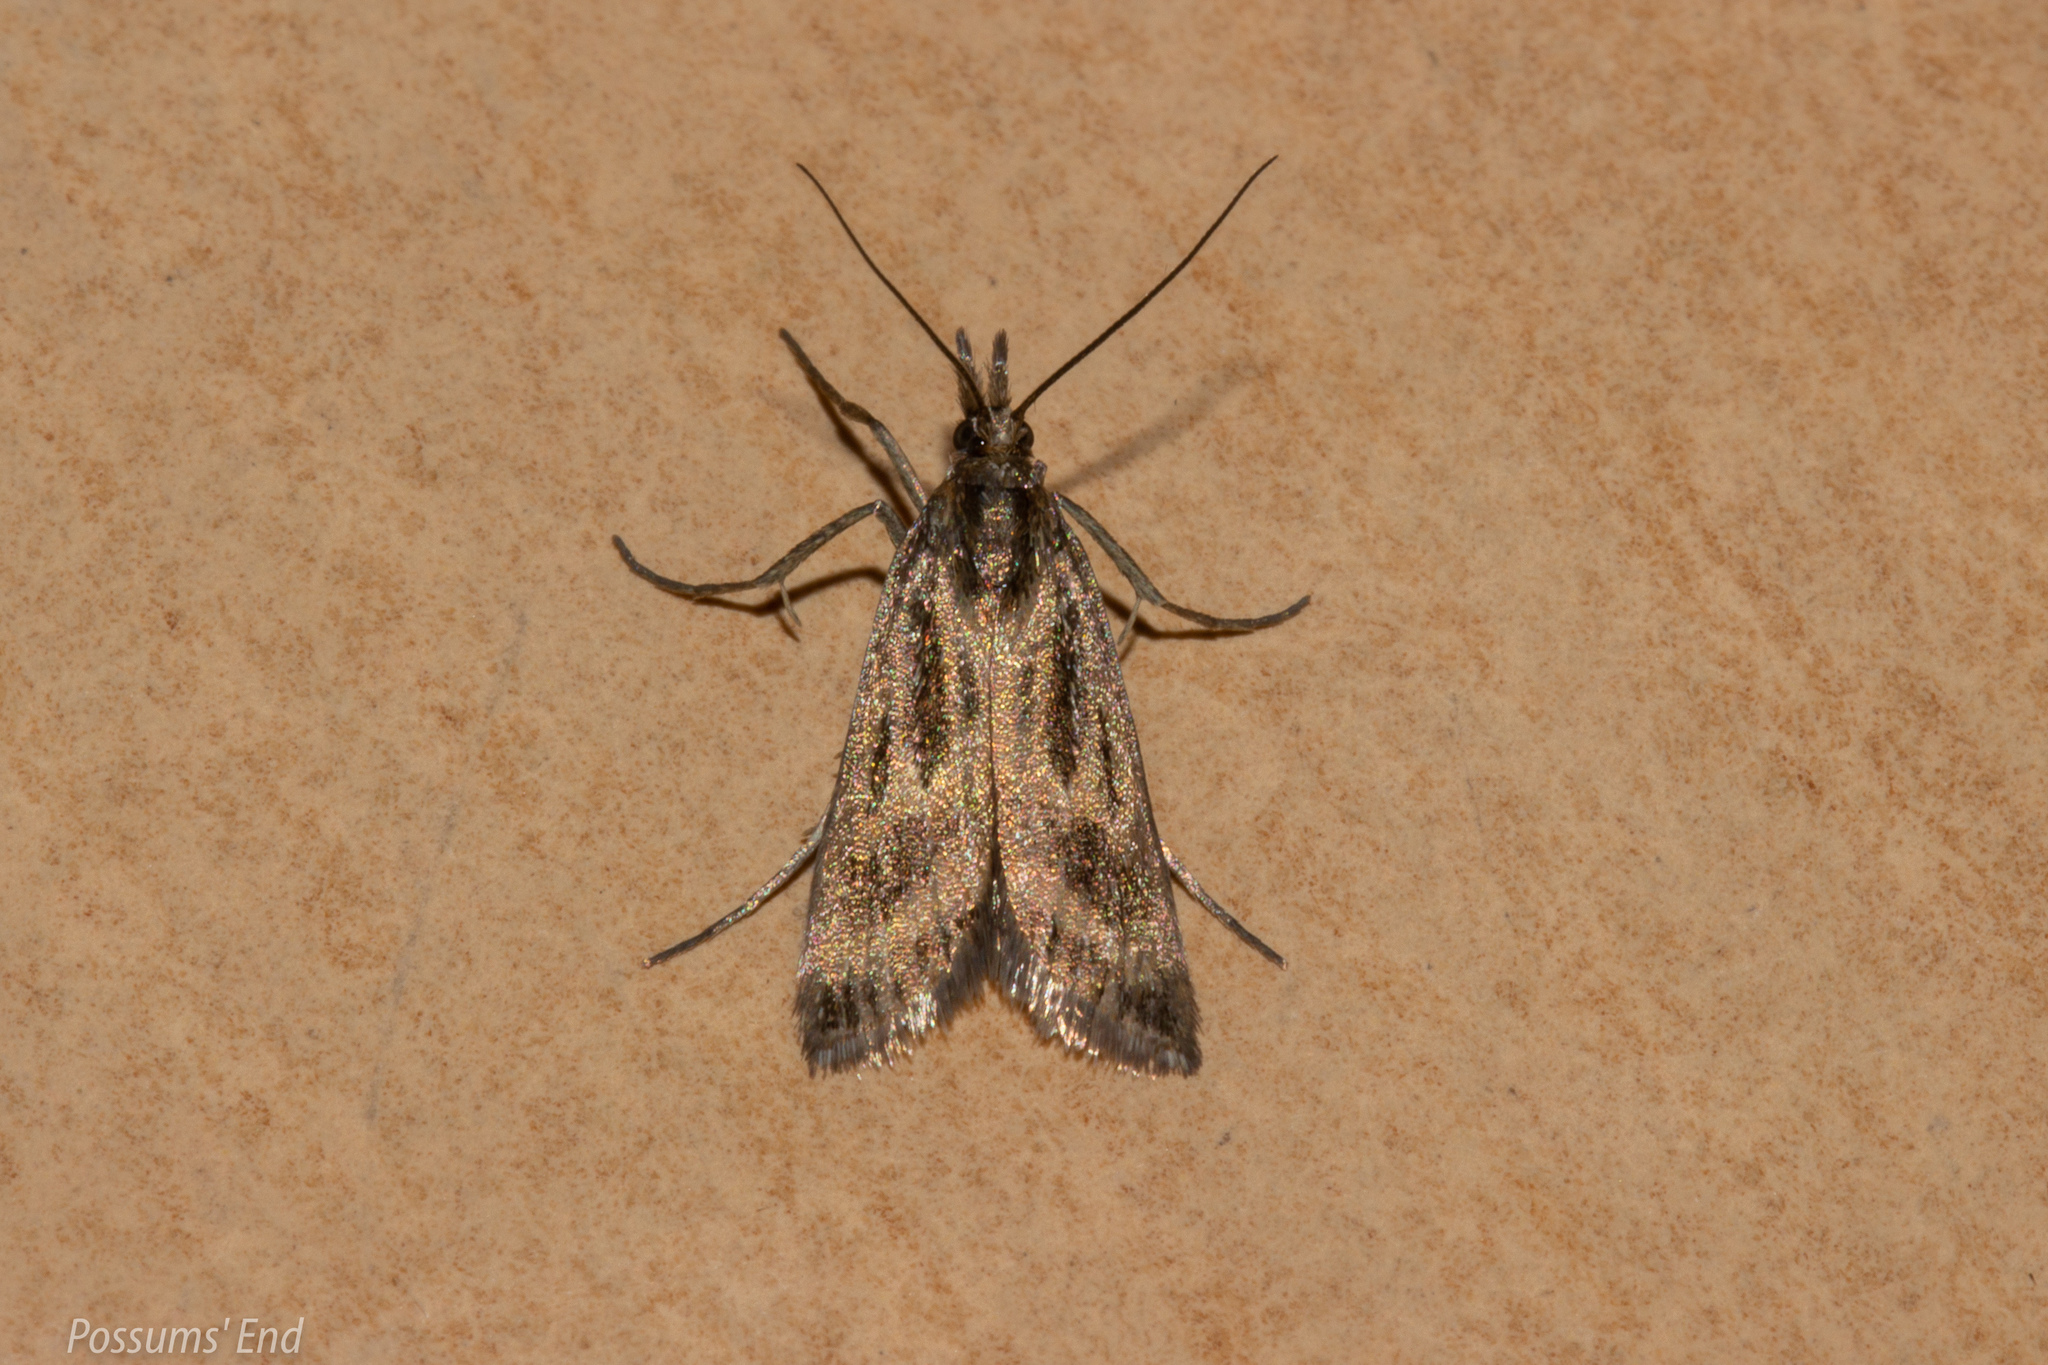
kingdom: Animalia
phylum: Arthropoda
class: Insecta
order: Lepidoptera
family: Crambidae
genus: Orocrambus
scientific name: Orocrambus corruptus
